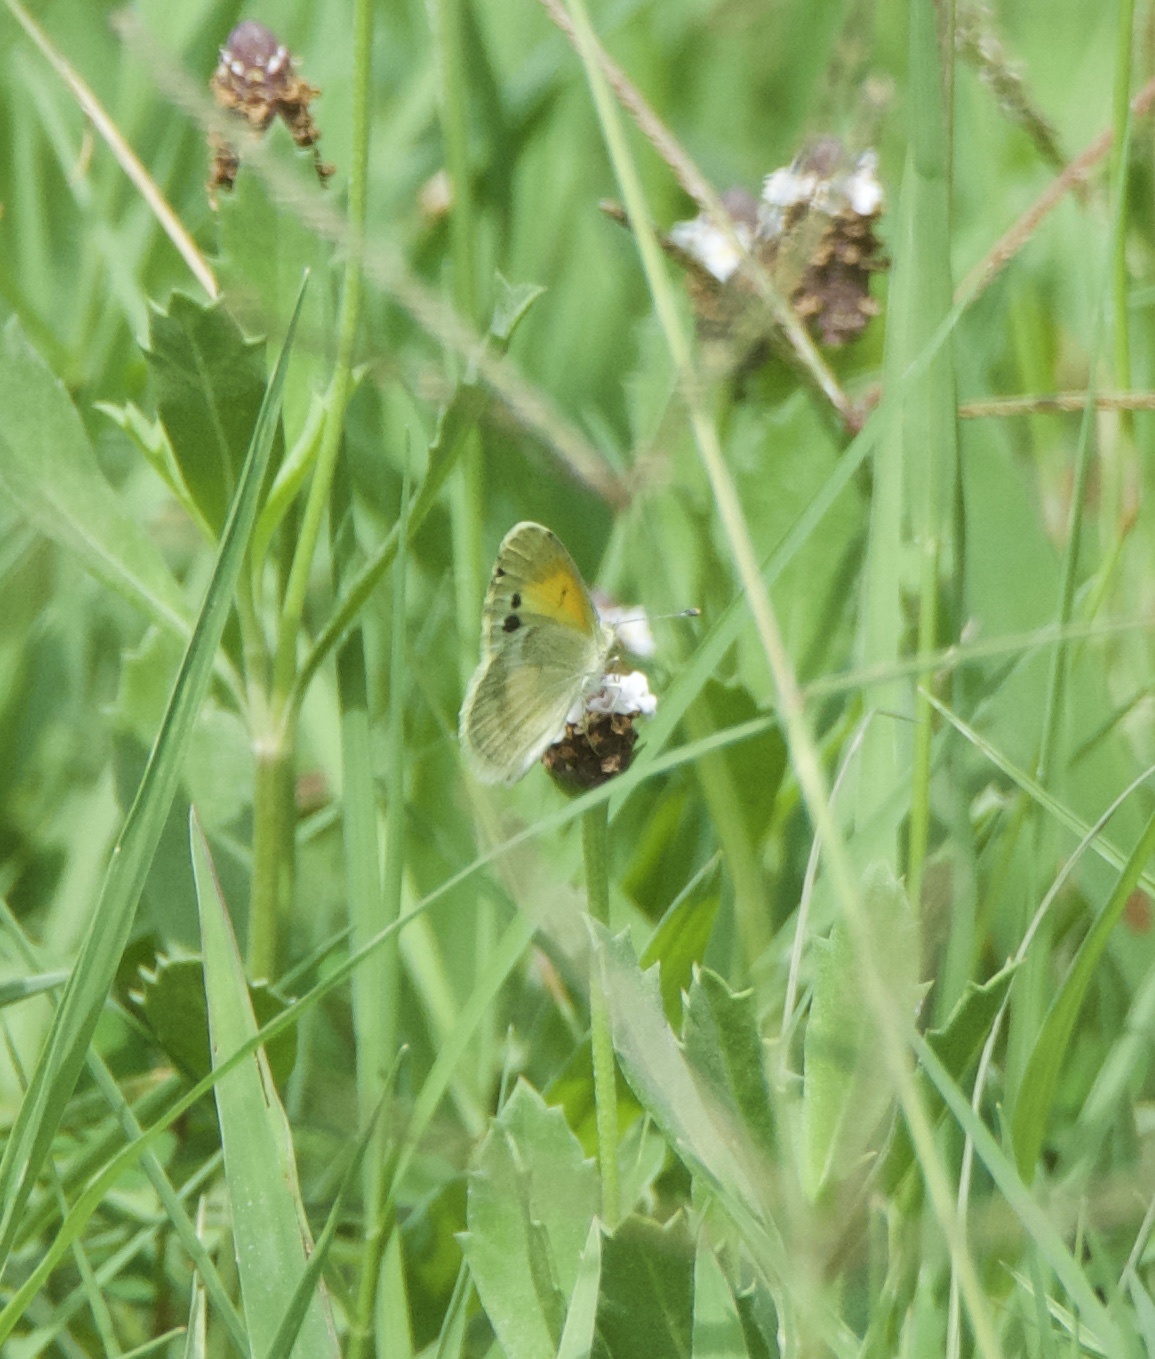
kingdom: Animalia
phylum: Arthropoda
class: Insecta
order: Lepidoptera
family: Pieridae
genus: Nathalis
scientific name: Nathalis iole
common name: Dainty sulphur
